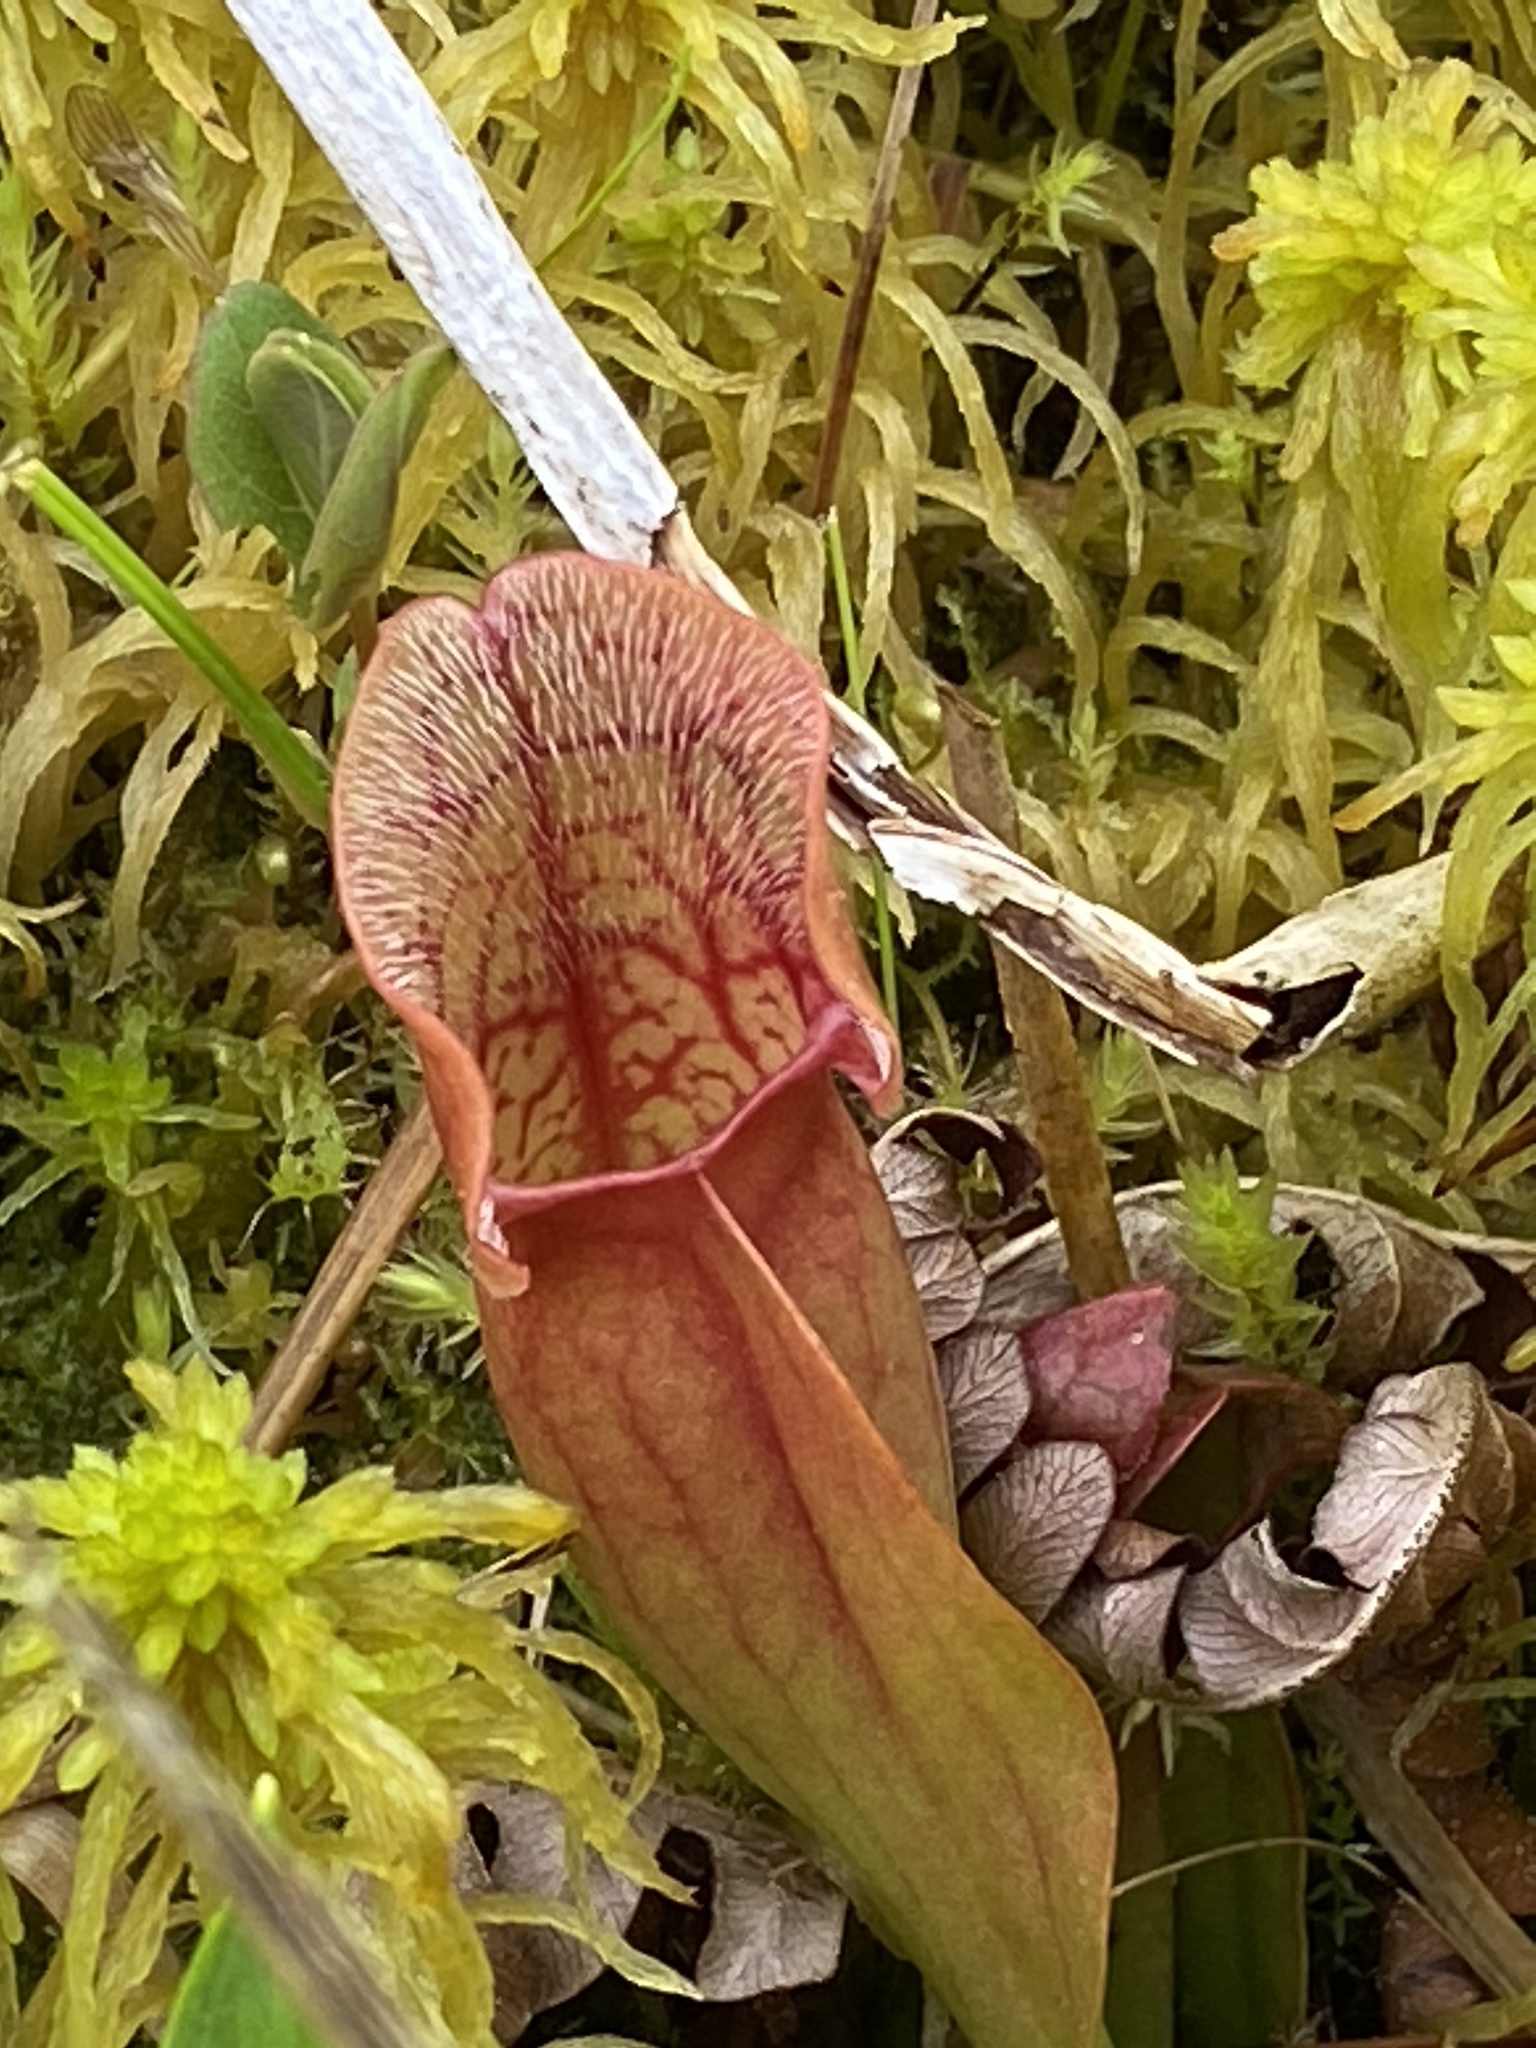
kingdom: Plantae
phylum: Tracheophyta
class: Magnoliopsida
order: Ericales
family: Sarraceniaceae
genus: Sarracenia
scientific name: Sarracenia purpurea
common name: Pitcherplant
